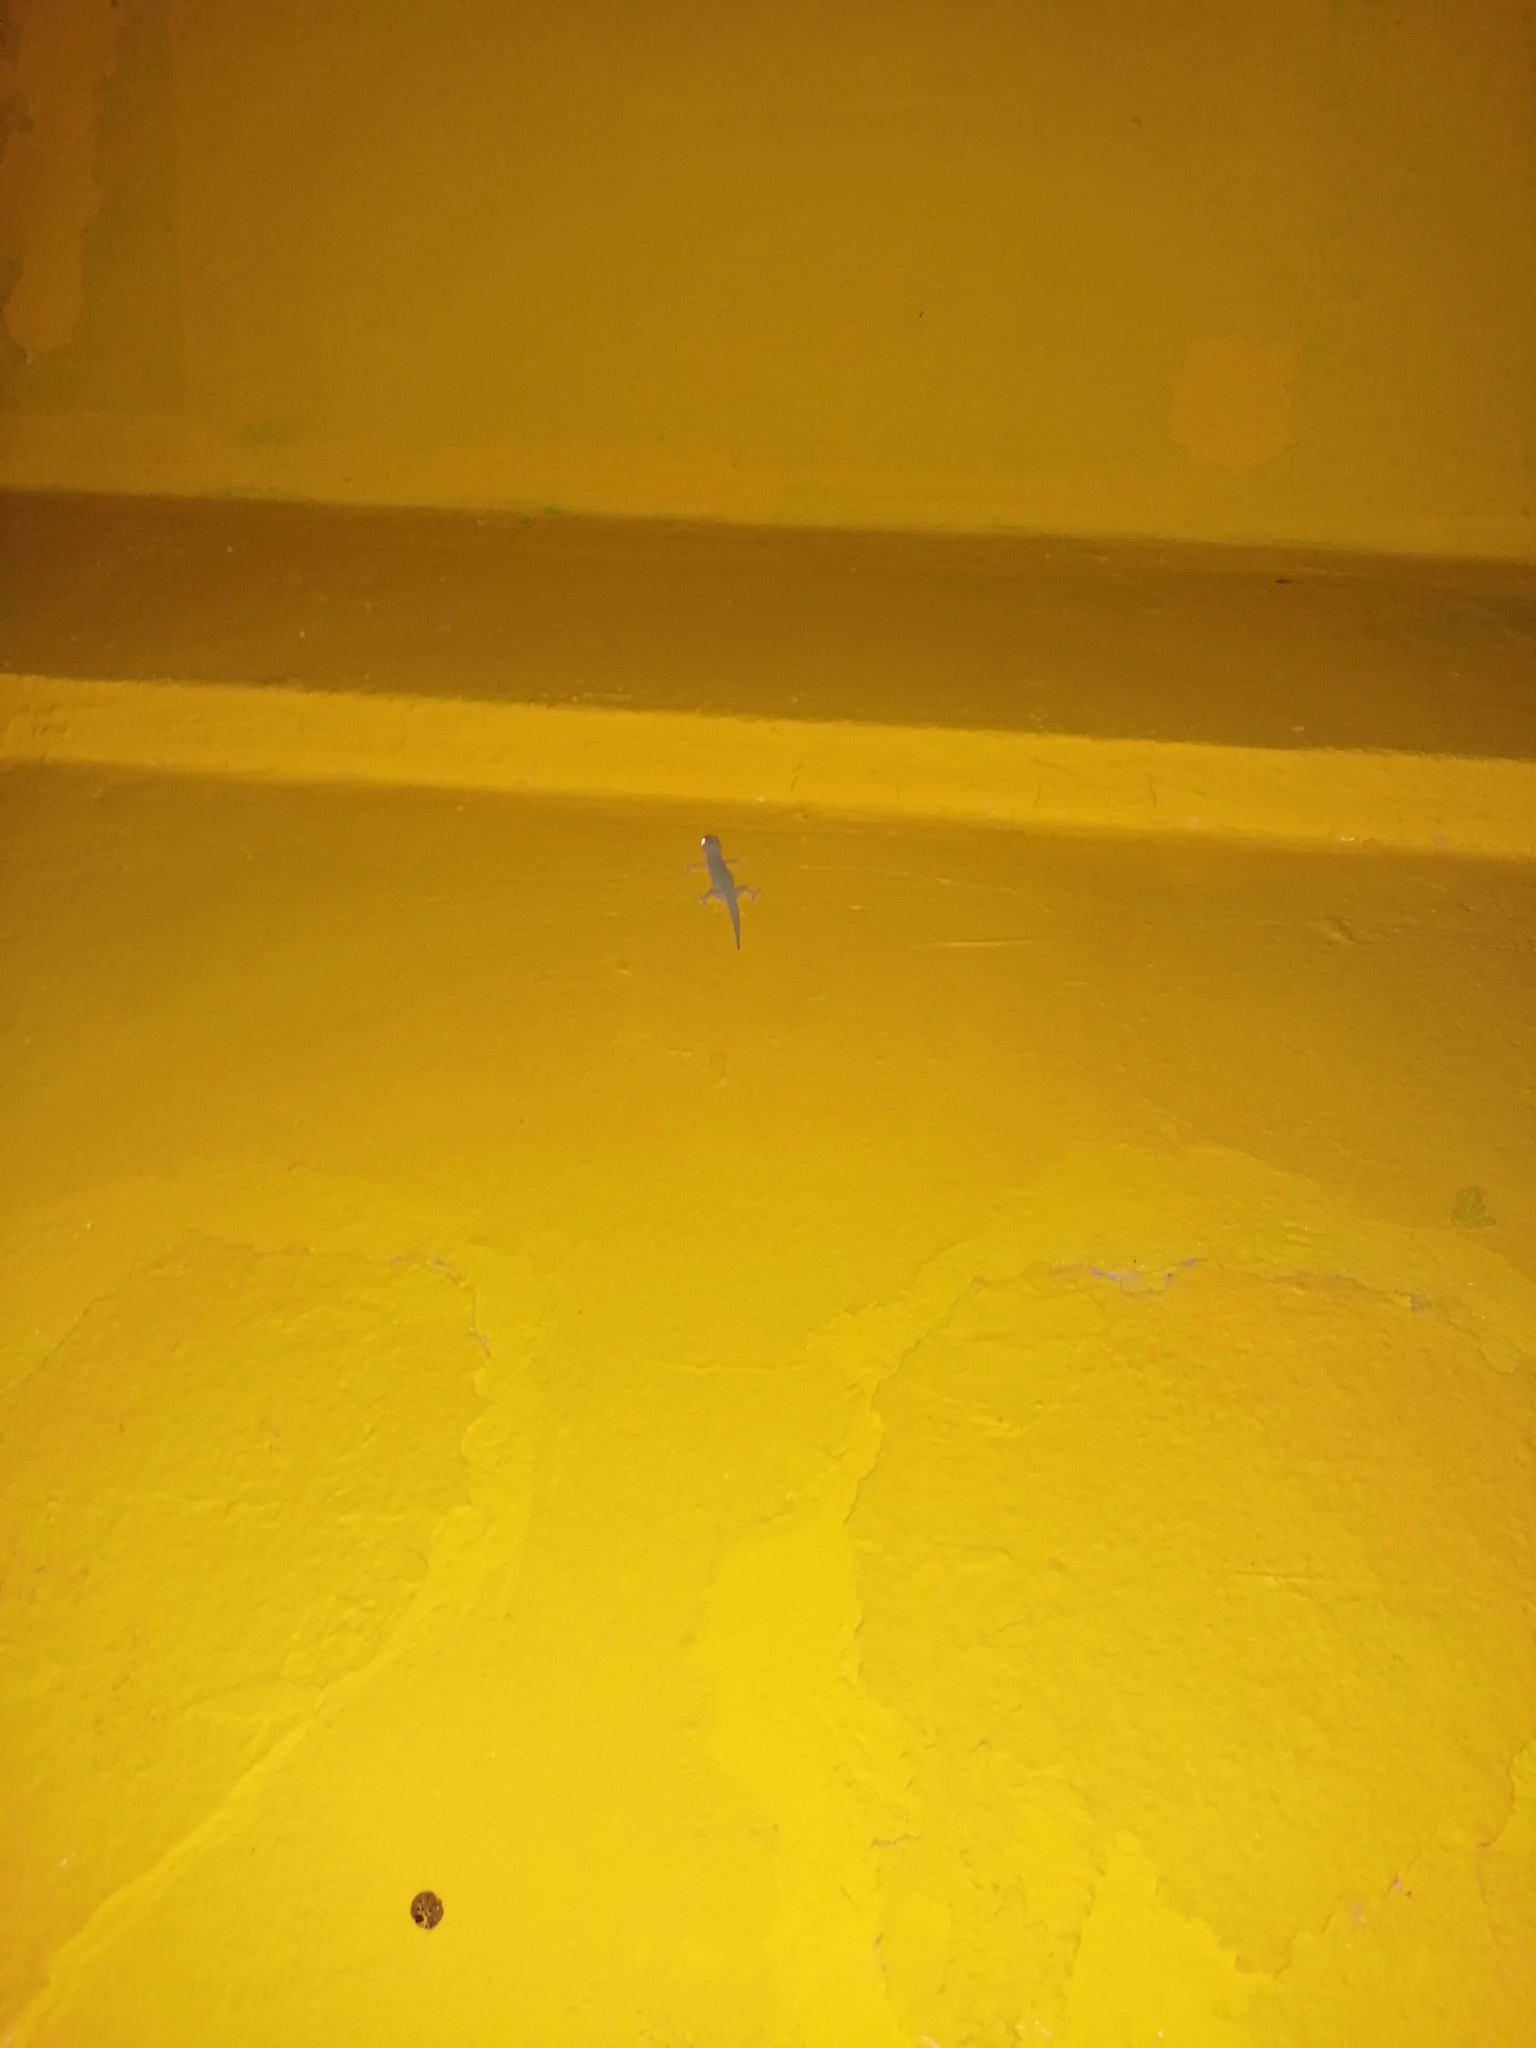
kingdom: Animalia
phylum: Chordata
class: Squamata
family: Gekkonidae
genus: Hemidactylus
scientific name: Hemidactylus frenatus
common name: Common house gecko
